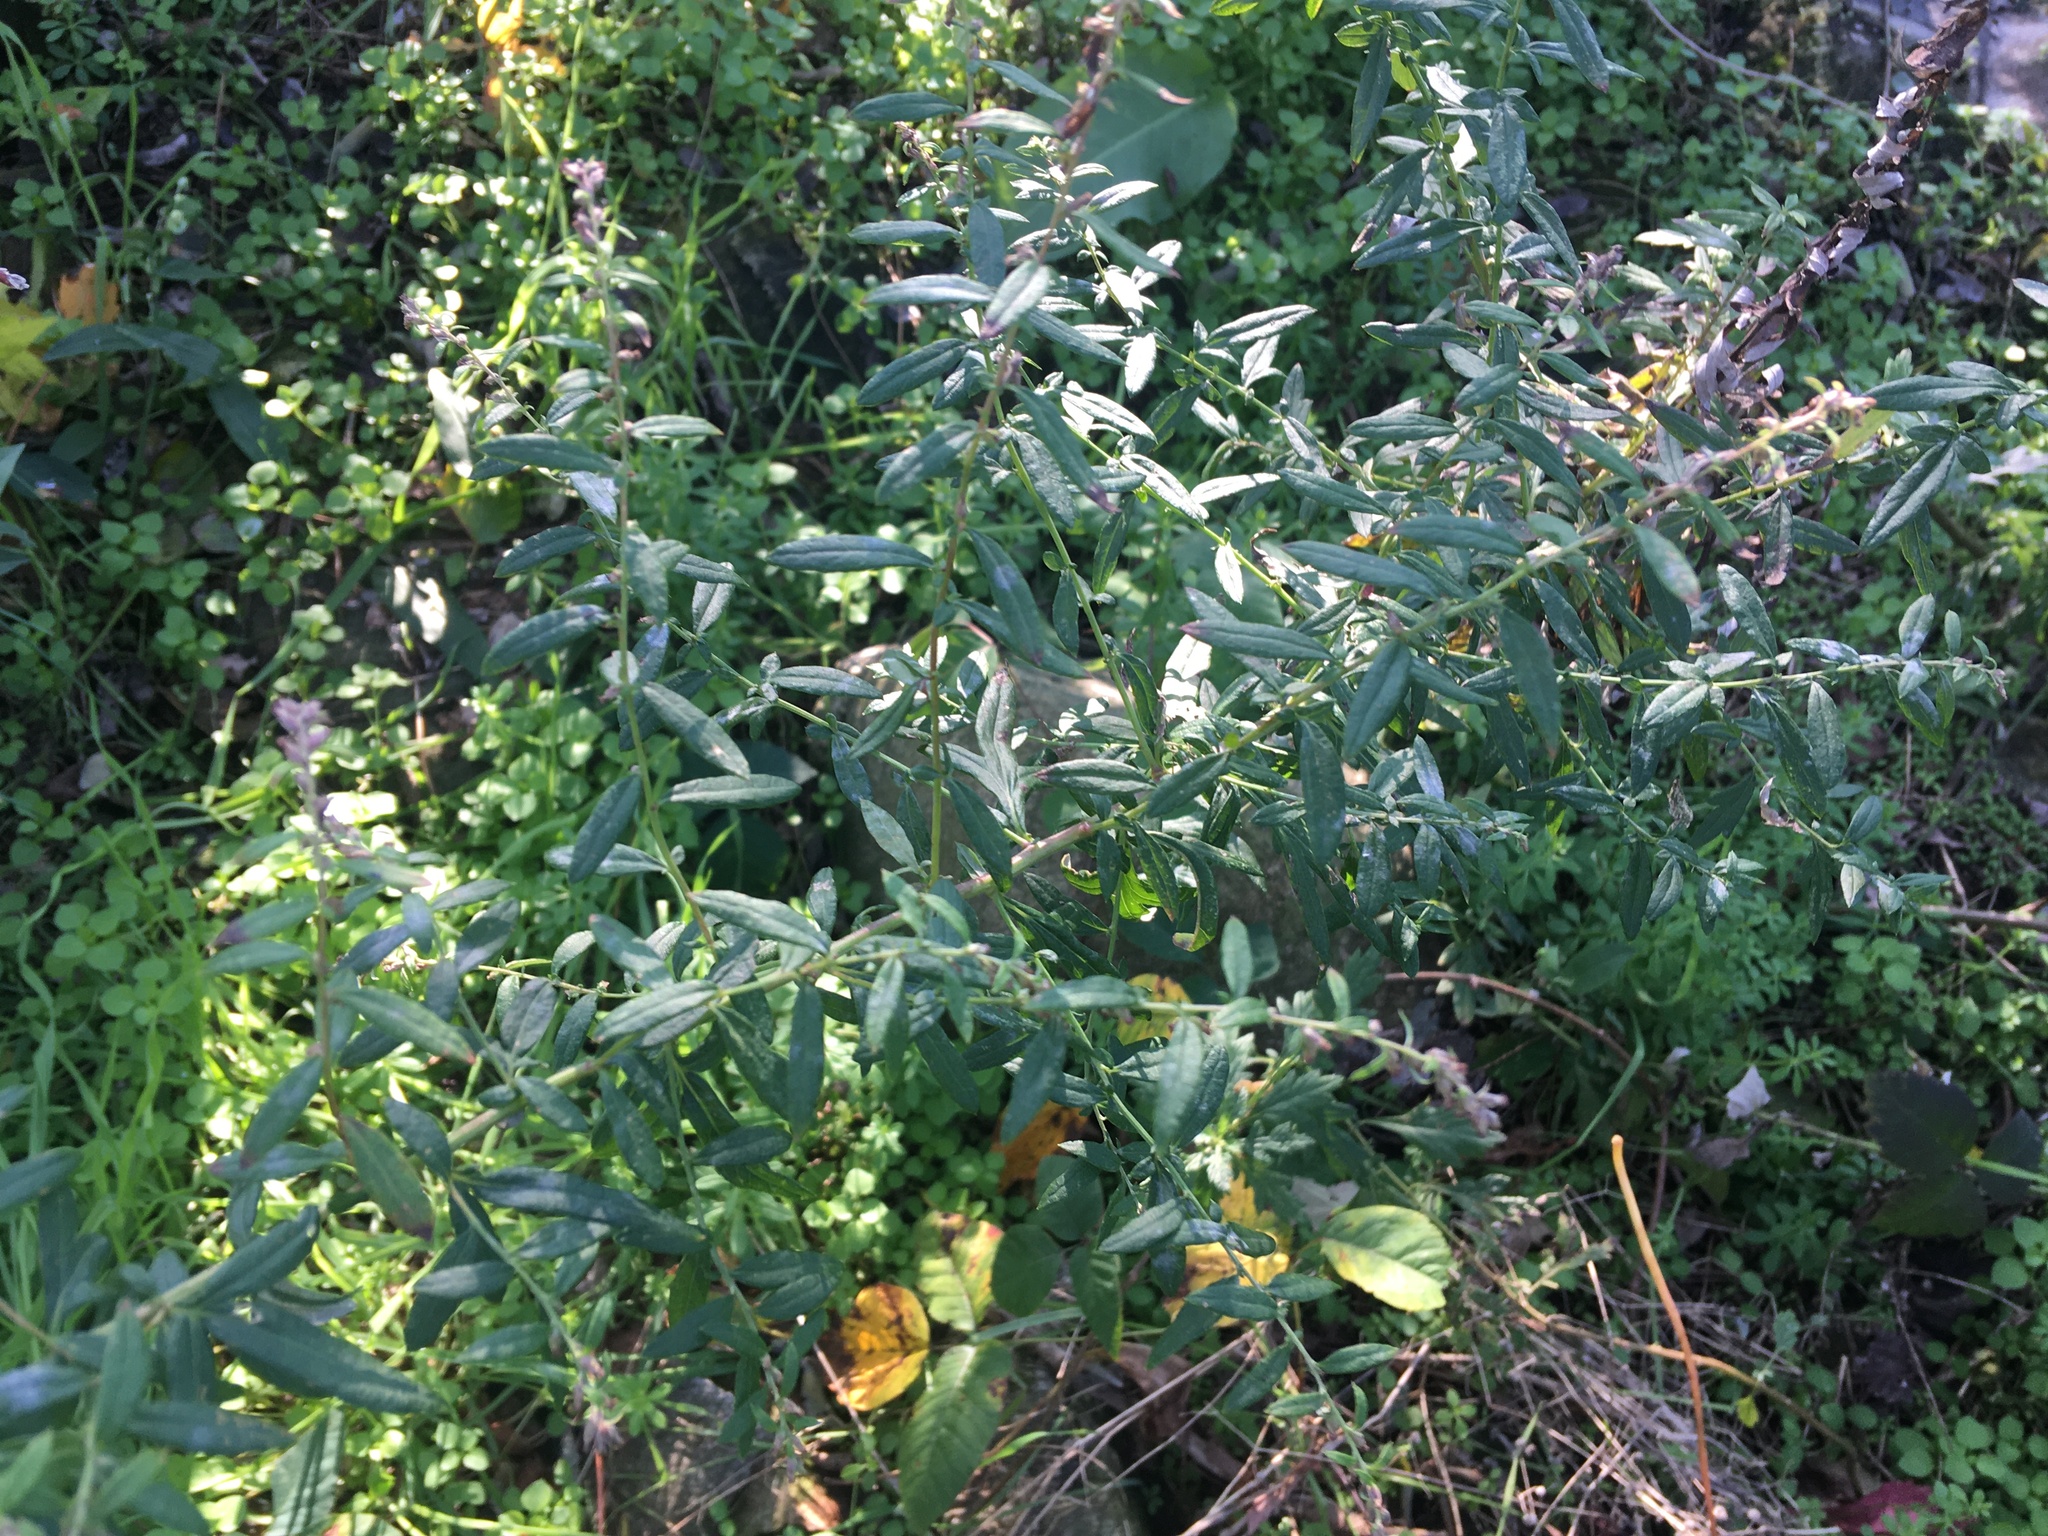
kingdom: Plantae
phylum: Tracheophyta
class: Magnoliopsida
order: Asterales
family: Asteraceae
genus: Artemisia
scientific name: Artemisia vulgaris
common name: Mugwort
